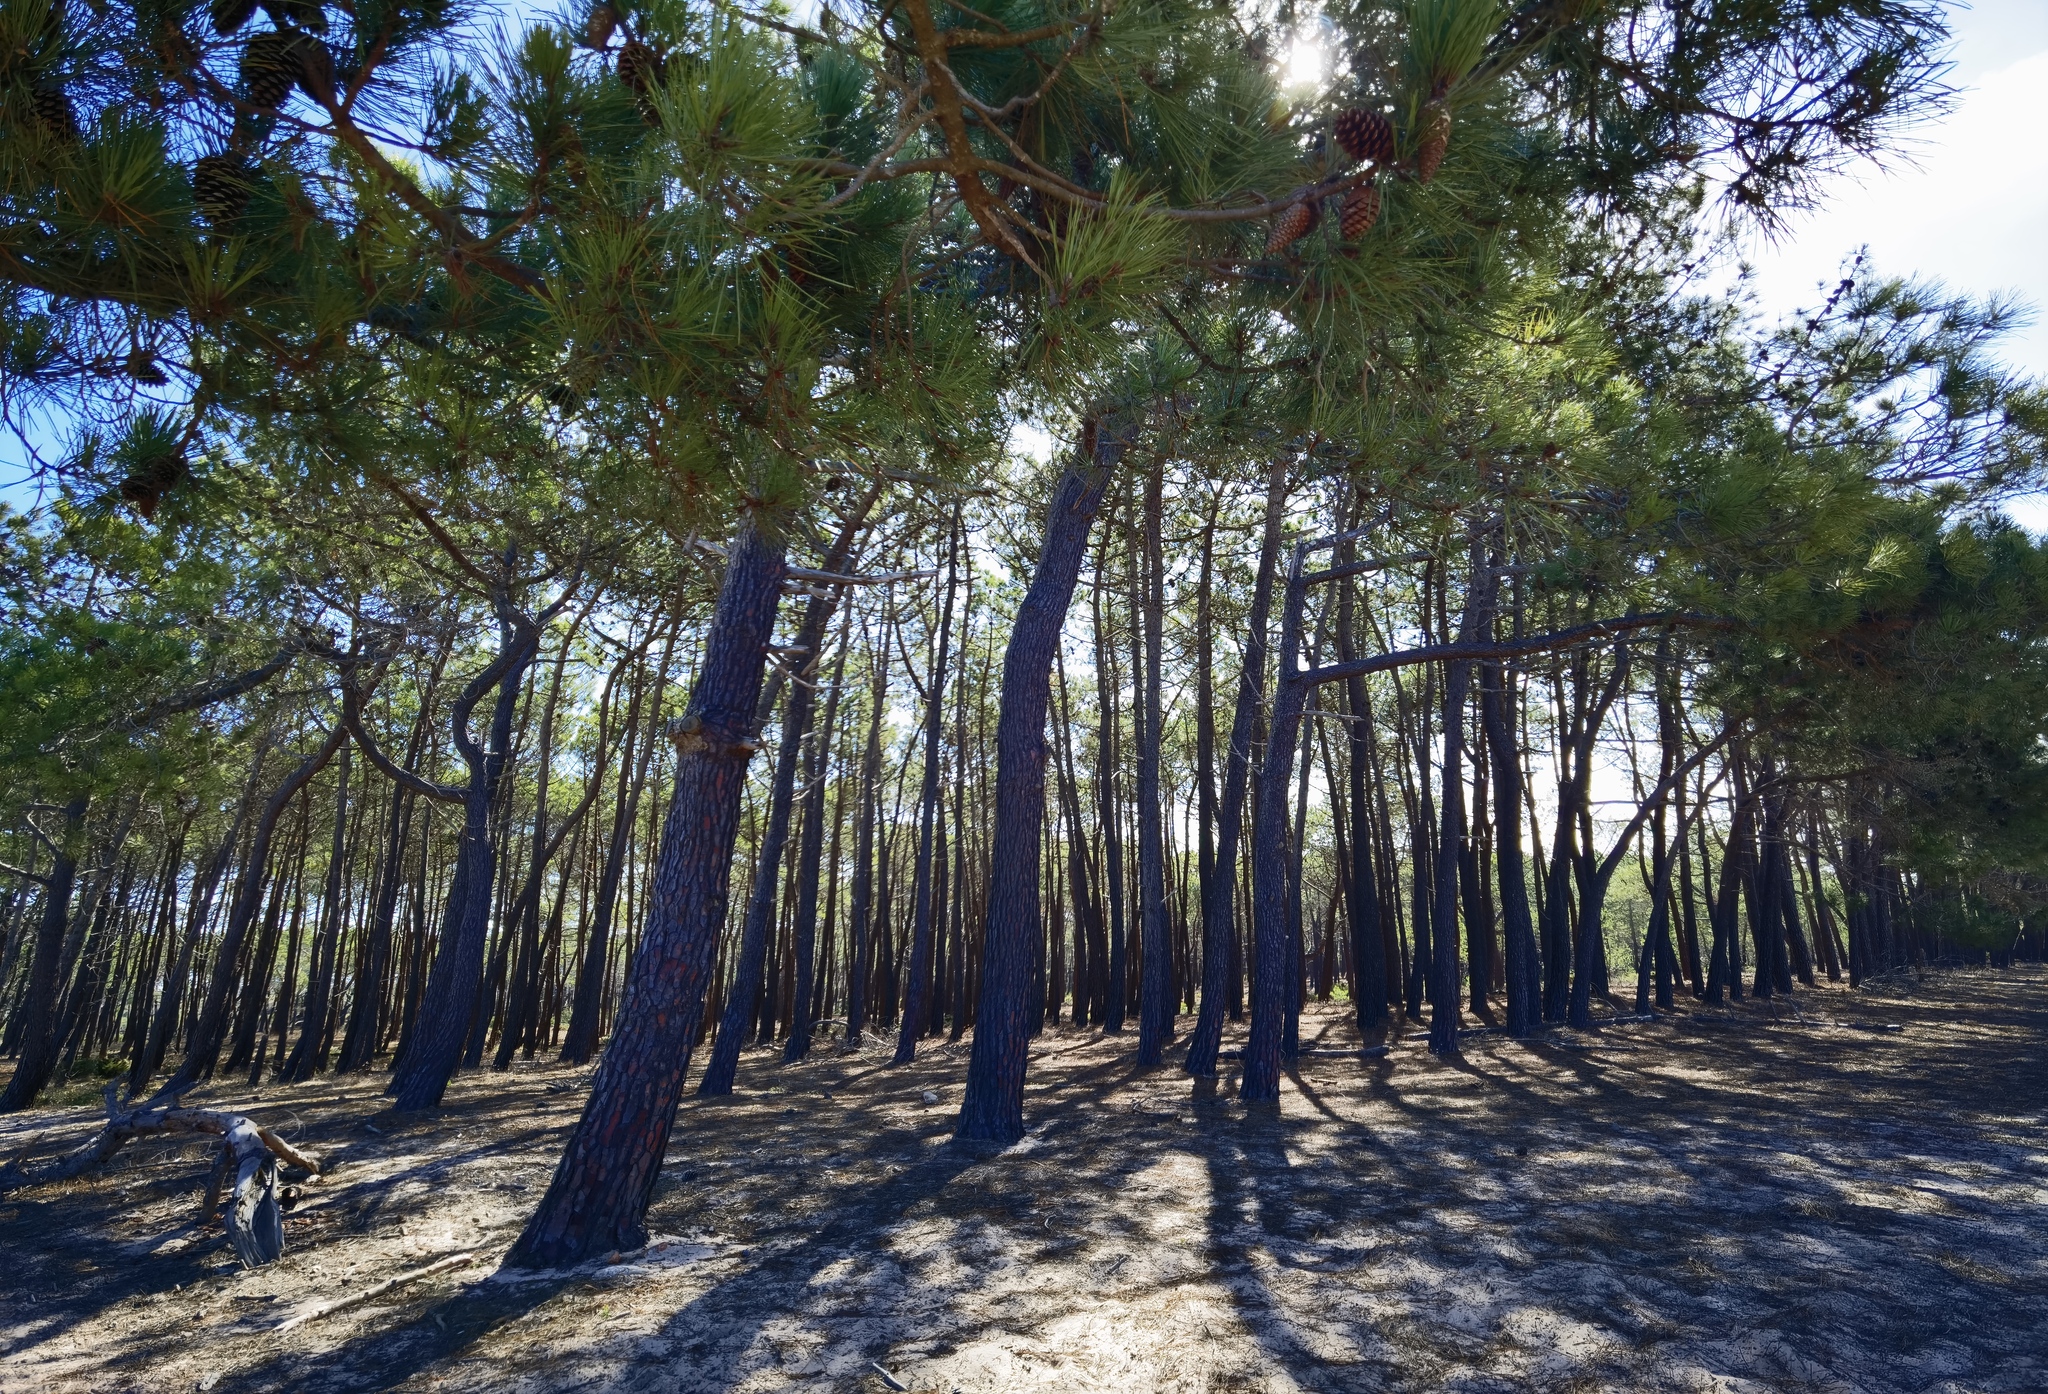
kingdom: Plantae
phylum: Tracheophyta
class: Pinopsida
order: Pinales
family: Pinaceae
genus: Pinus
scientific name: Pinus pinaster
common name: Maritime pine
